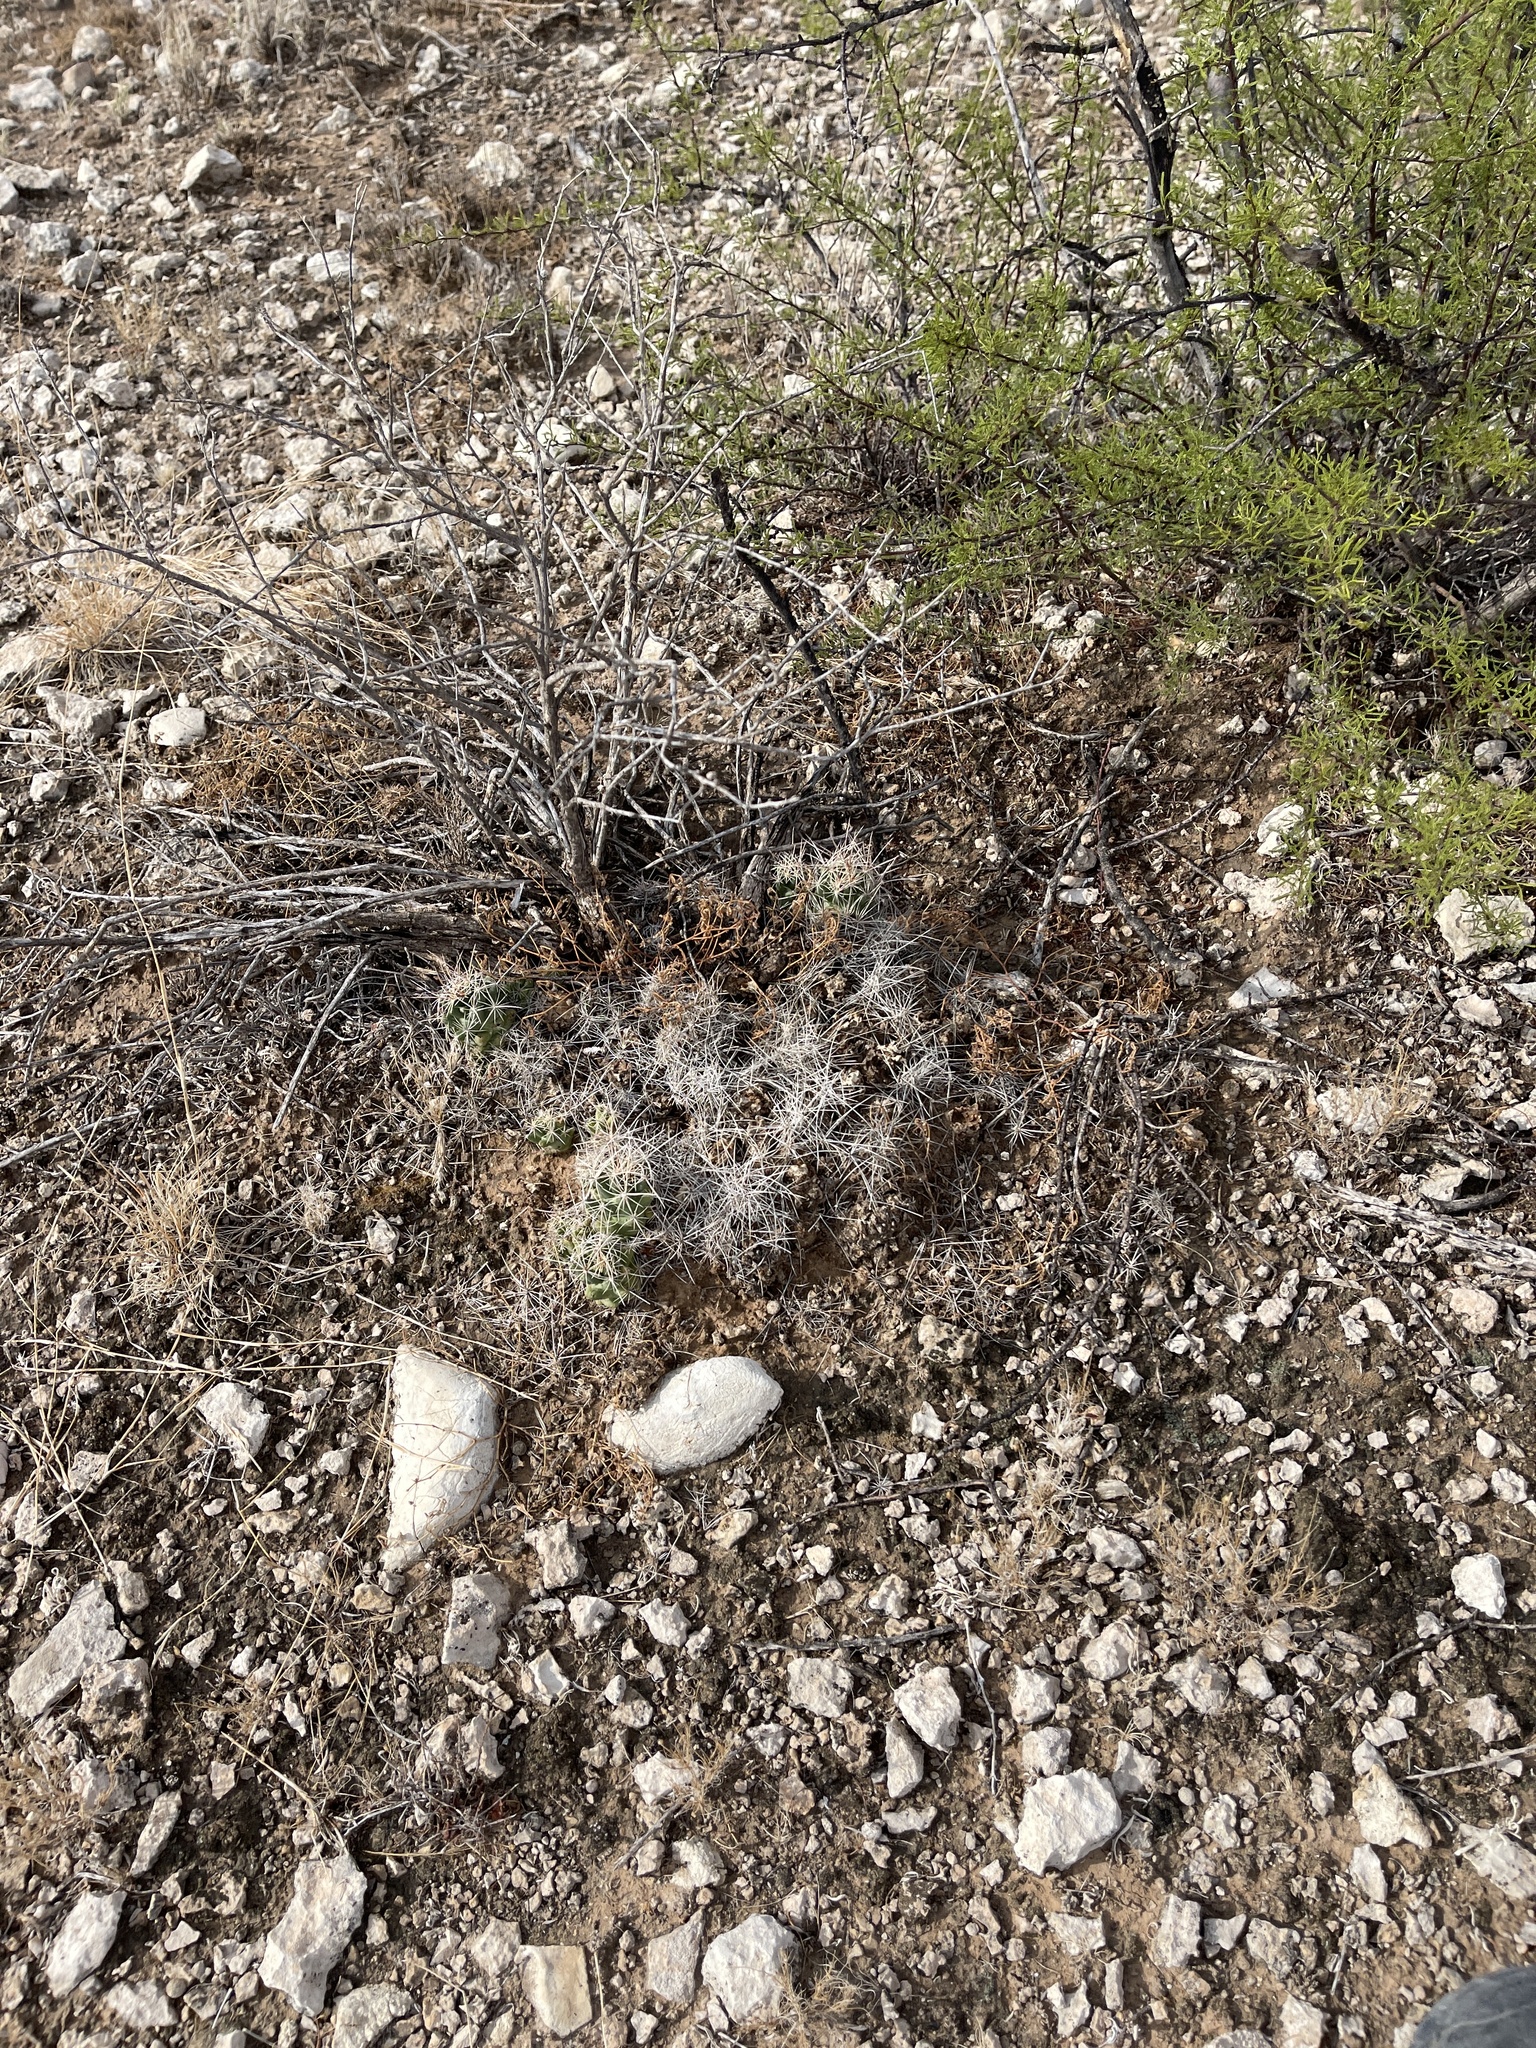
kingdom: Plantae
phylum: Tracheophyta
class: Magnoliopsida
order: Caryophyllales
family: Cactaceae
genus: Coryphantha
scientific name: Coryphantha macromeris
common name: Nipple beehive cactus
